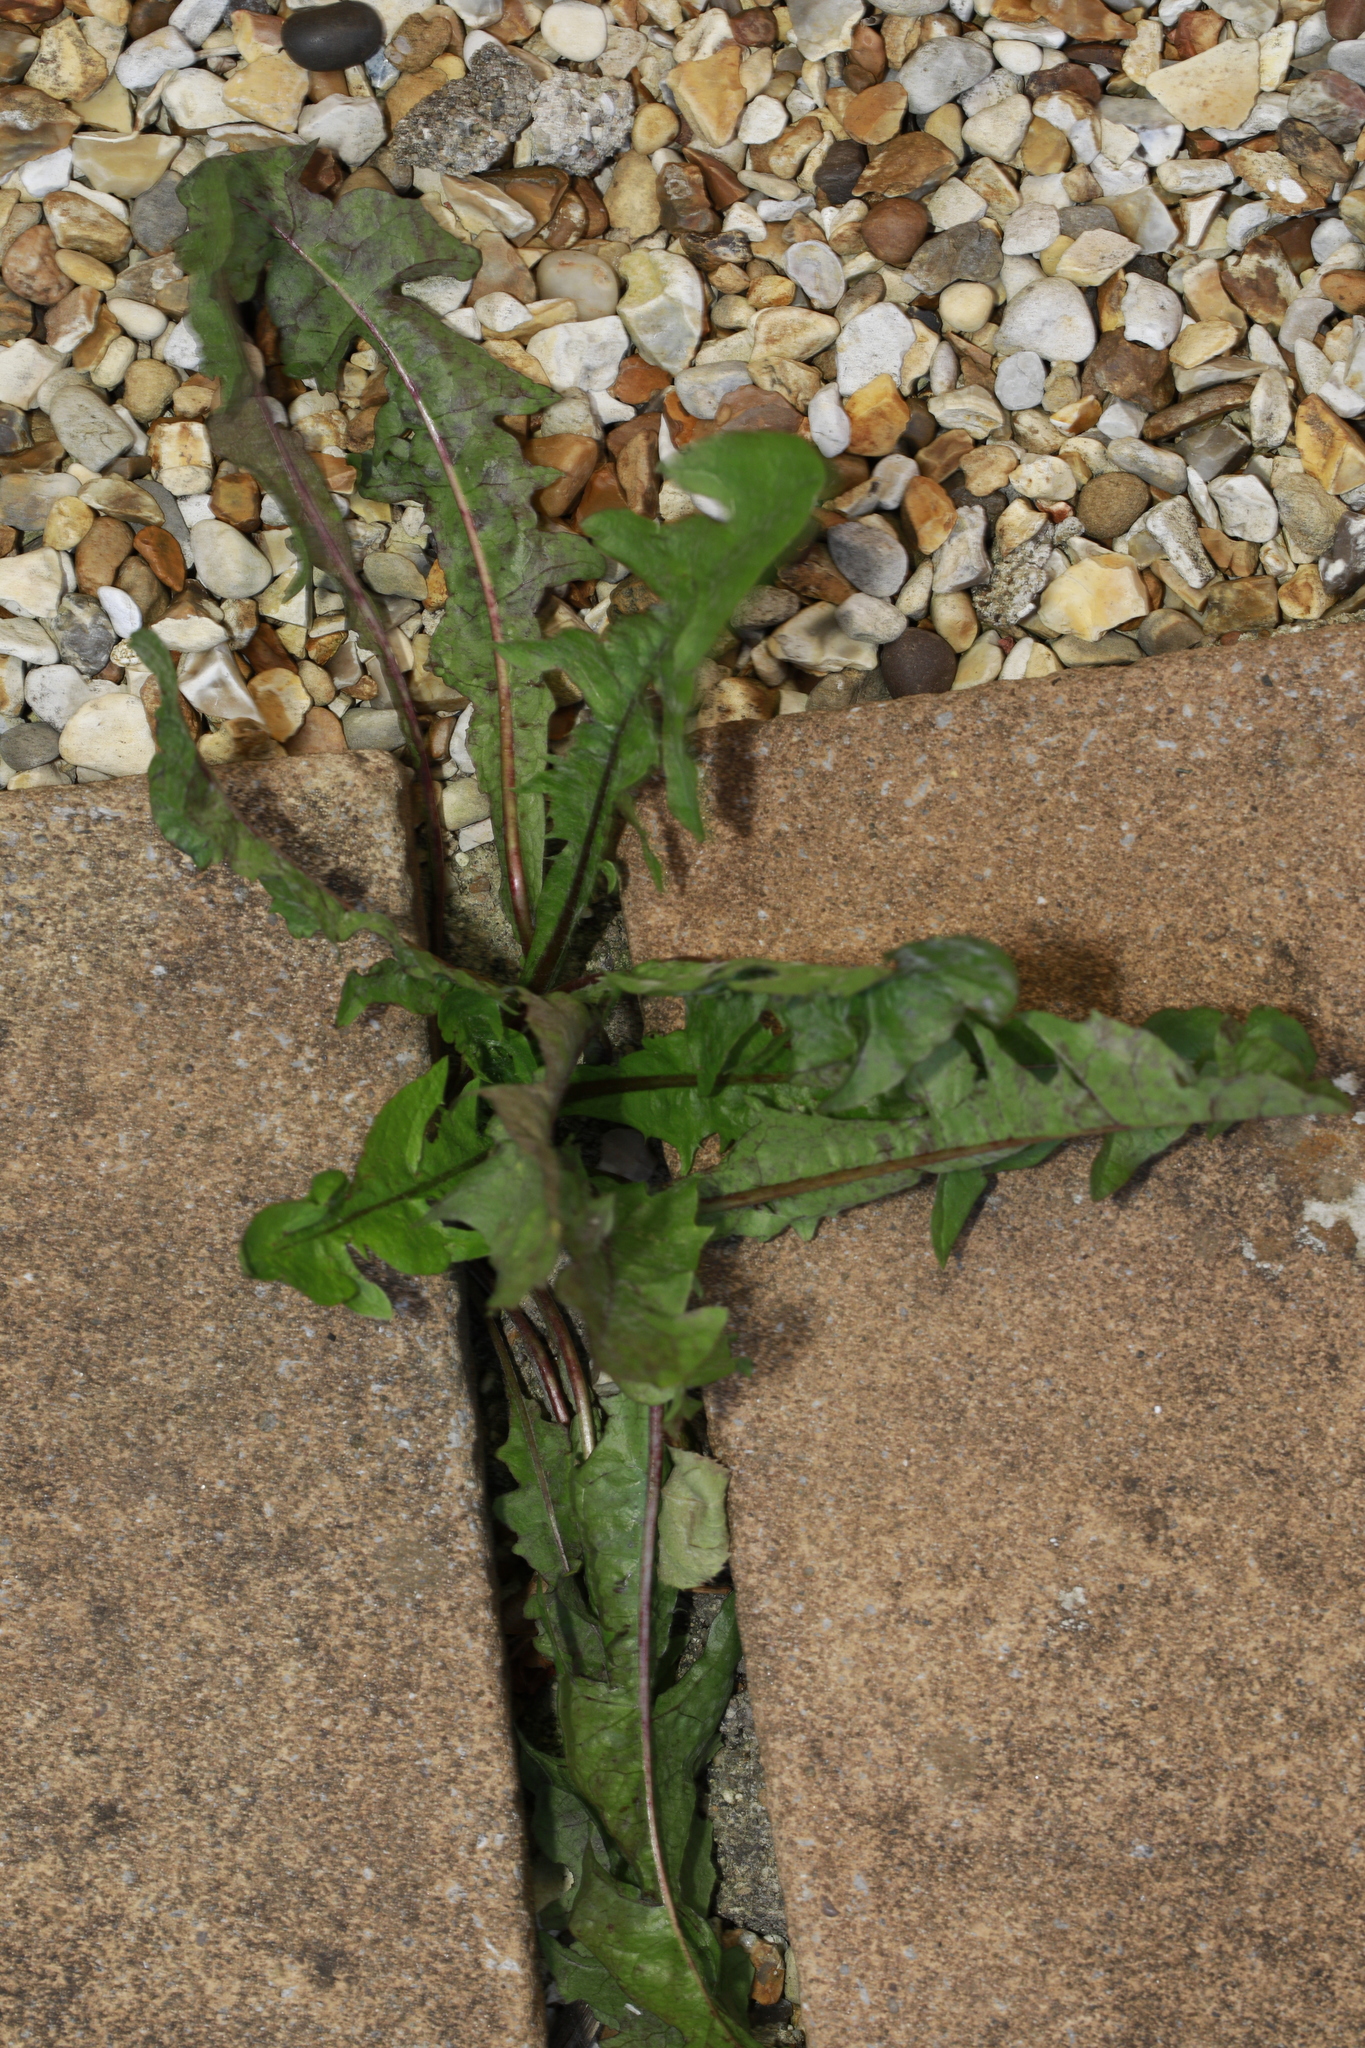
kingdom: Plantae
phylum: Tracheophyta
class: Magnoliopsida
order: Asterales
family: Asteraceae
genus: Taraxacum
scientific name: Taraxacum officinale
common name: Common dandelion
